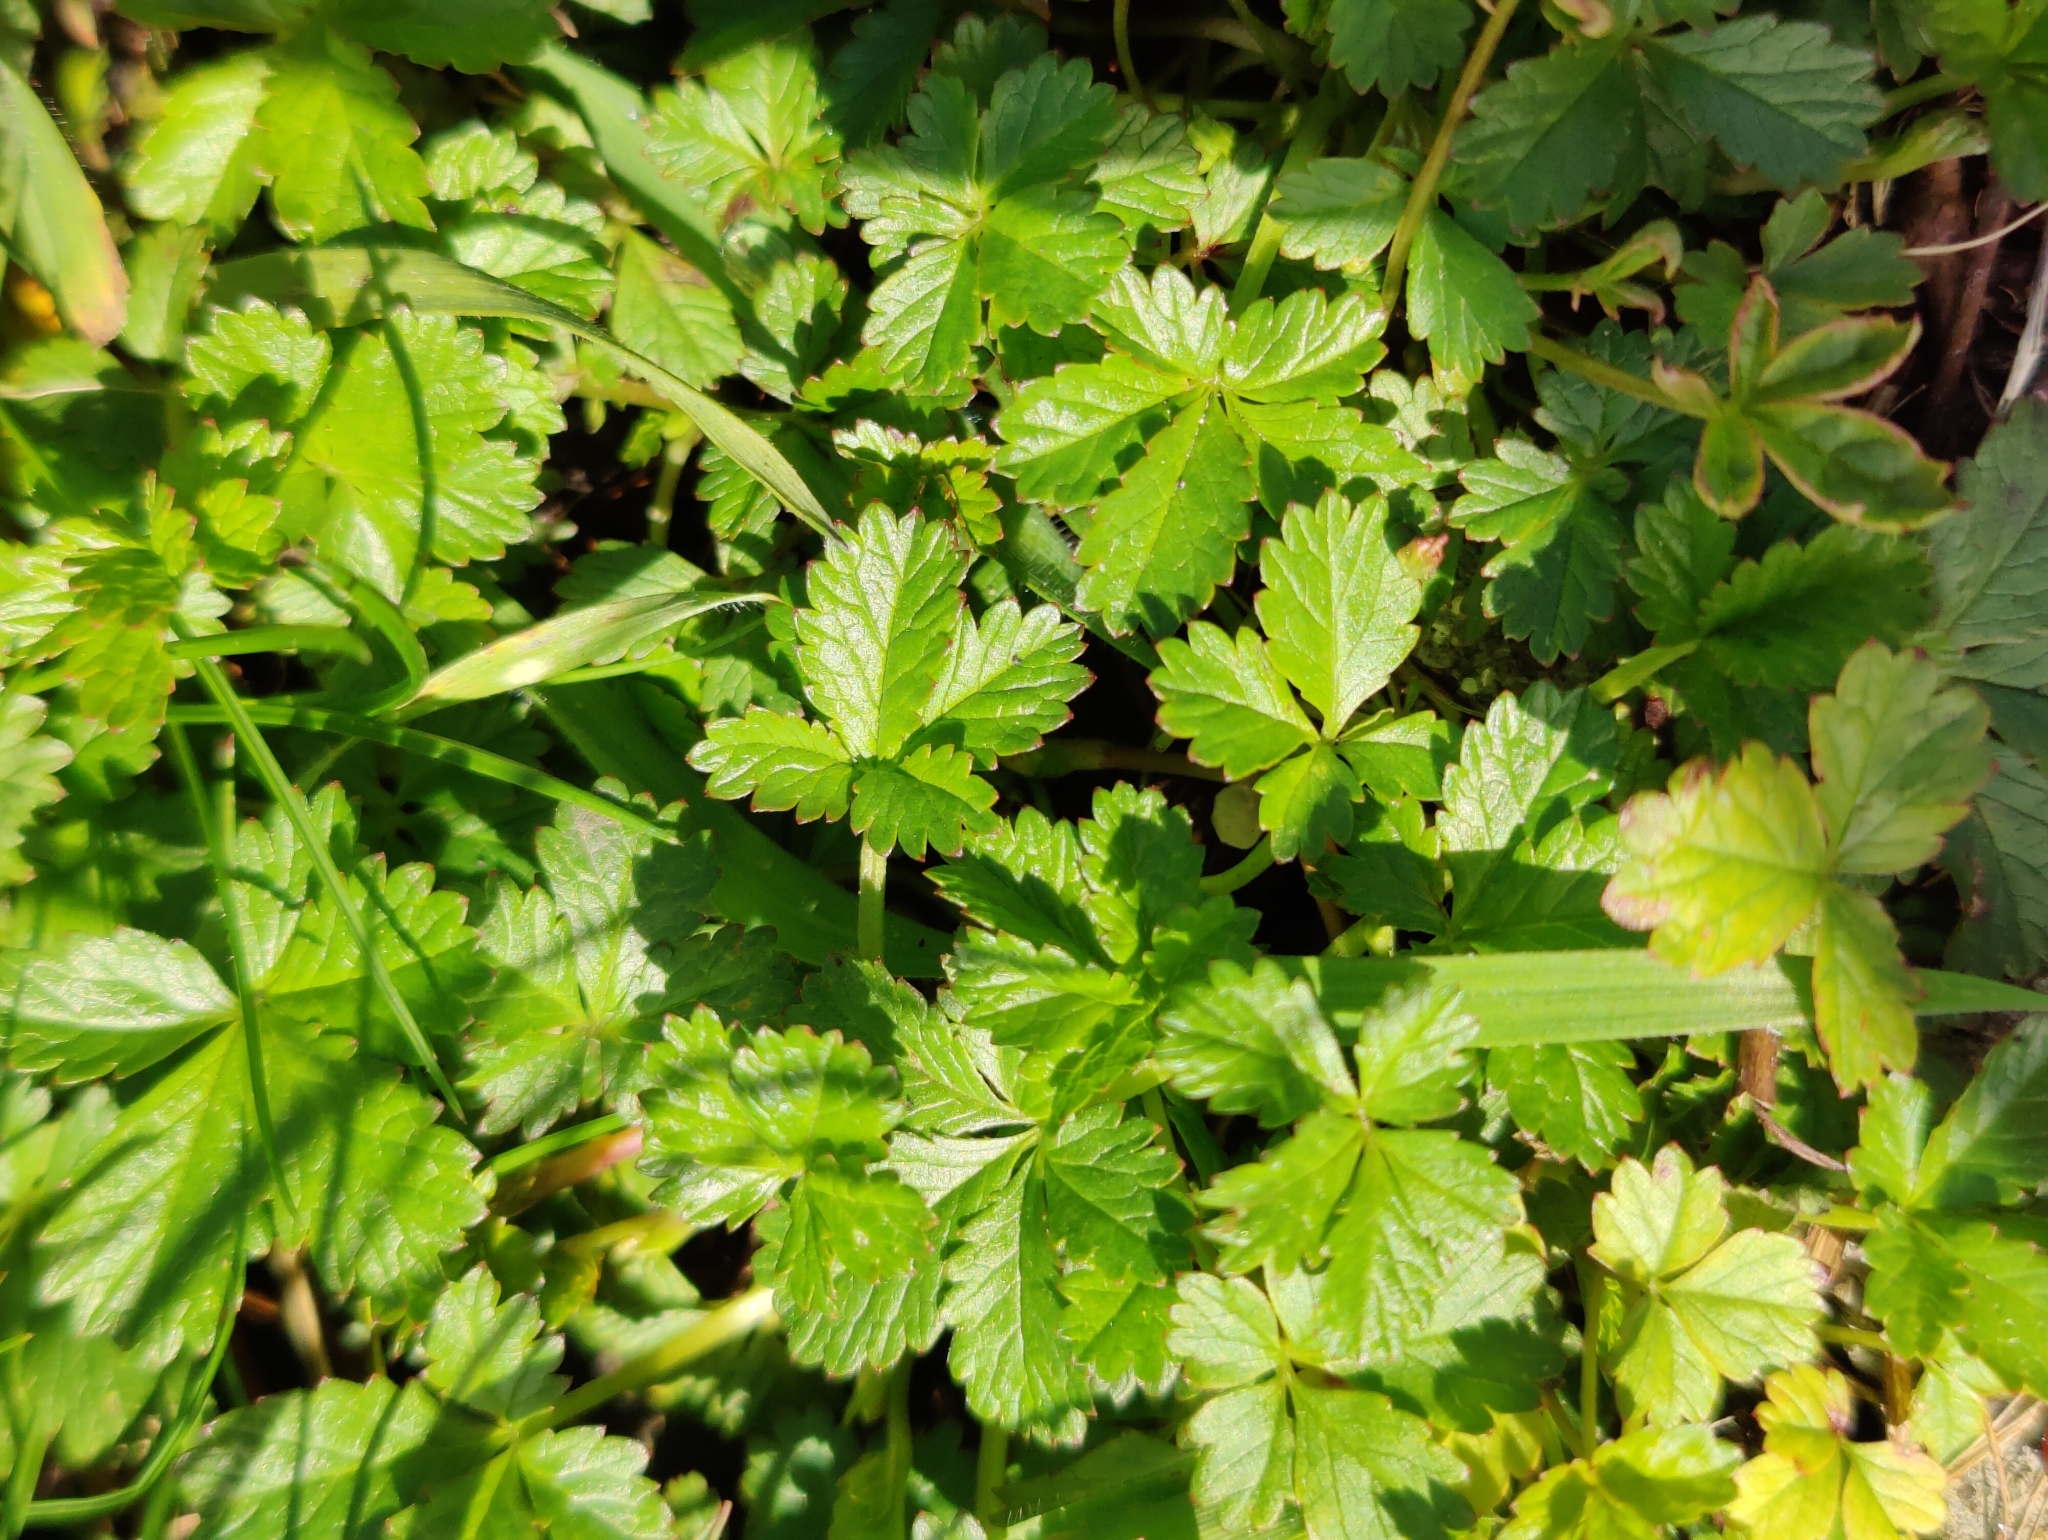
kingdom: Plantae
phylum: Tracheophyta
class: Magnoliopsida
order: Rosales
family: Rosaceae
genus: Potentilla
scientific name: Potentilla reptans
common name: Creeping cinquefoil
